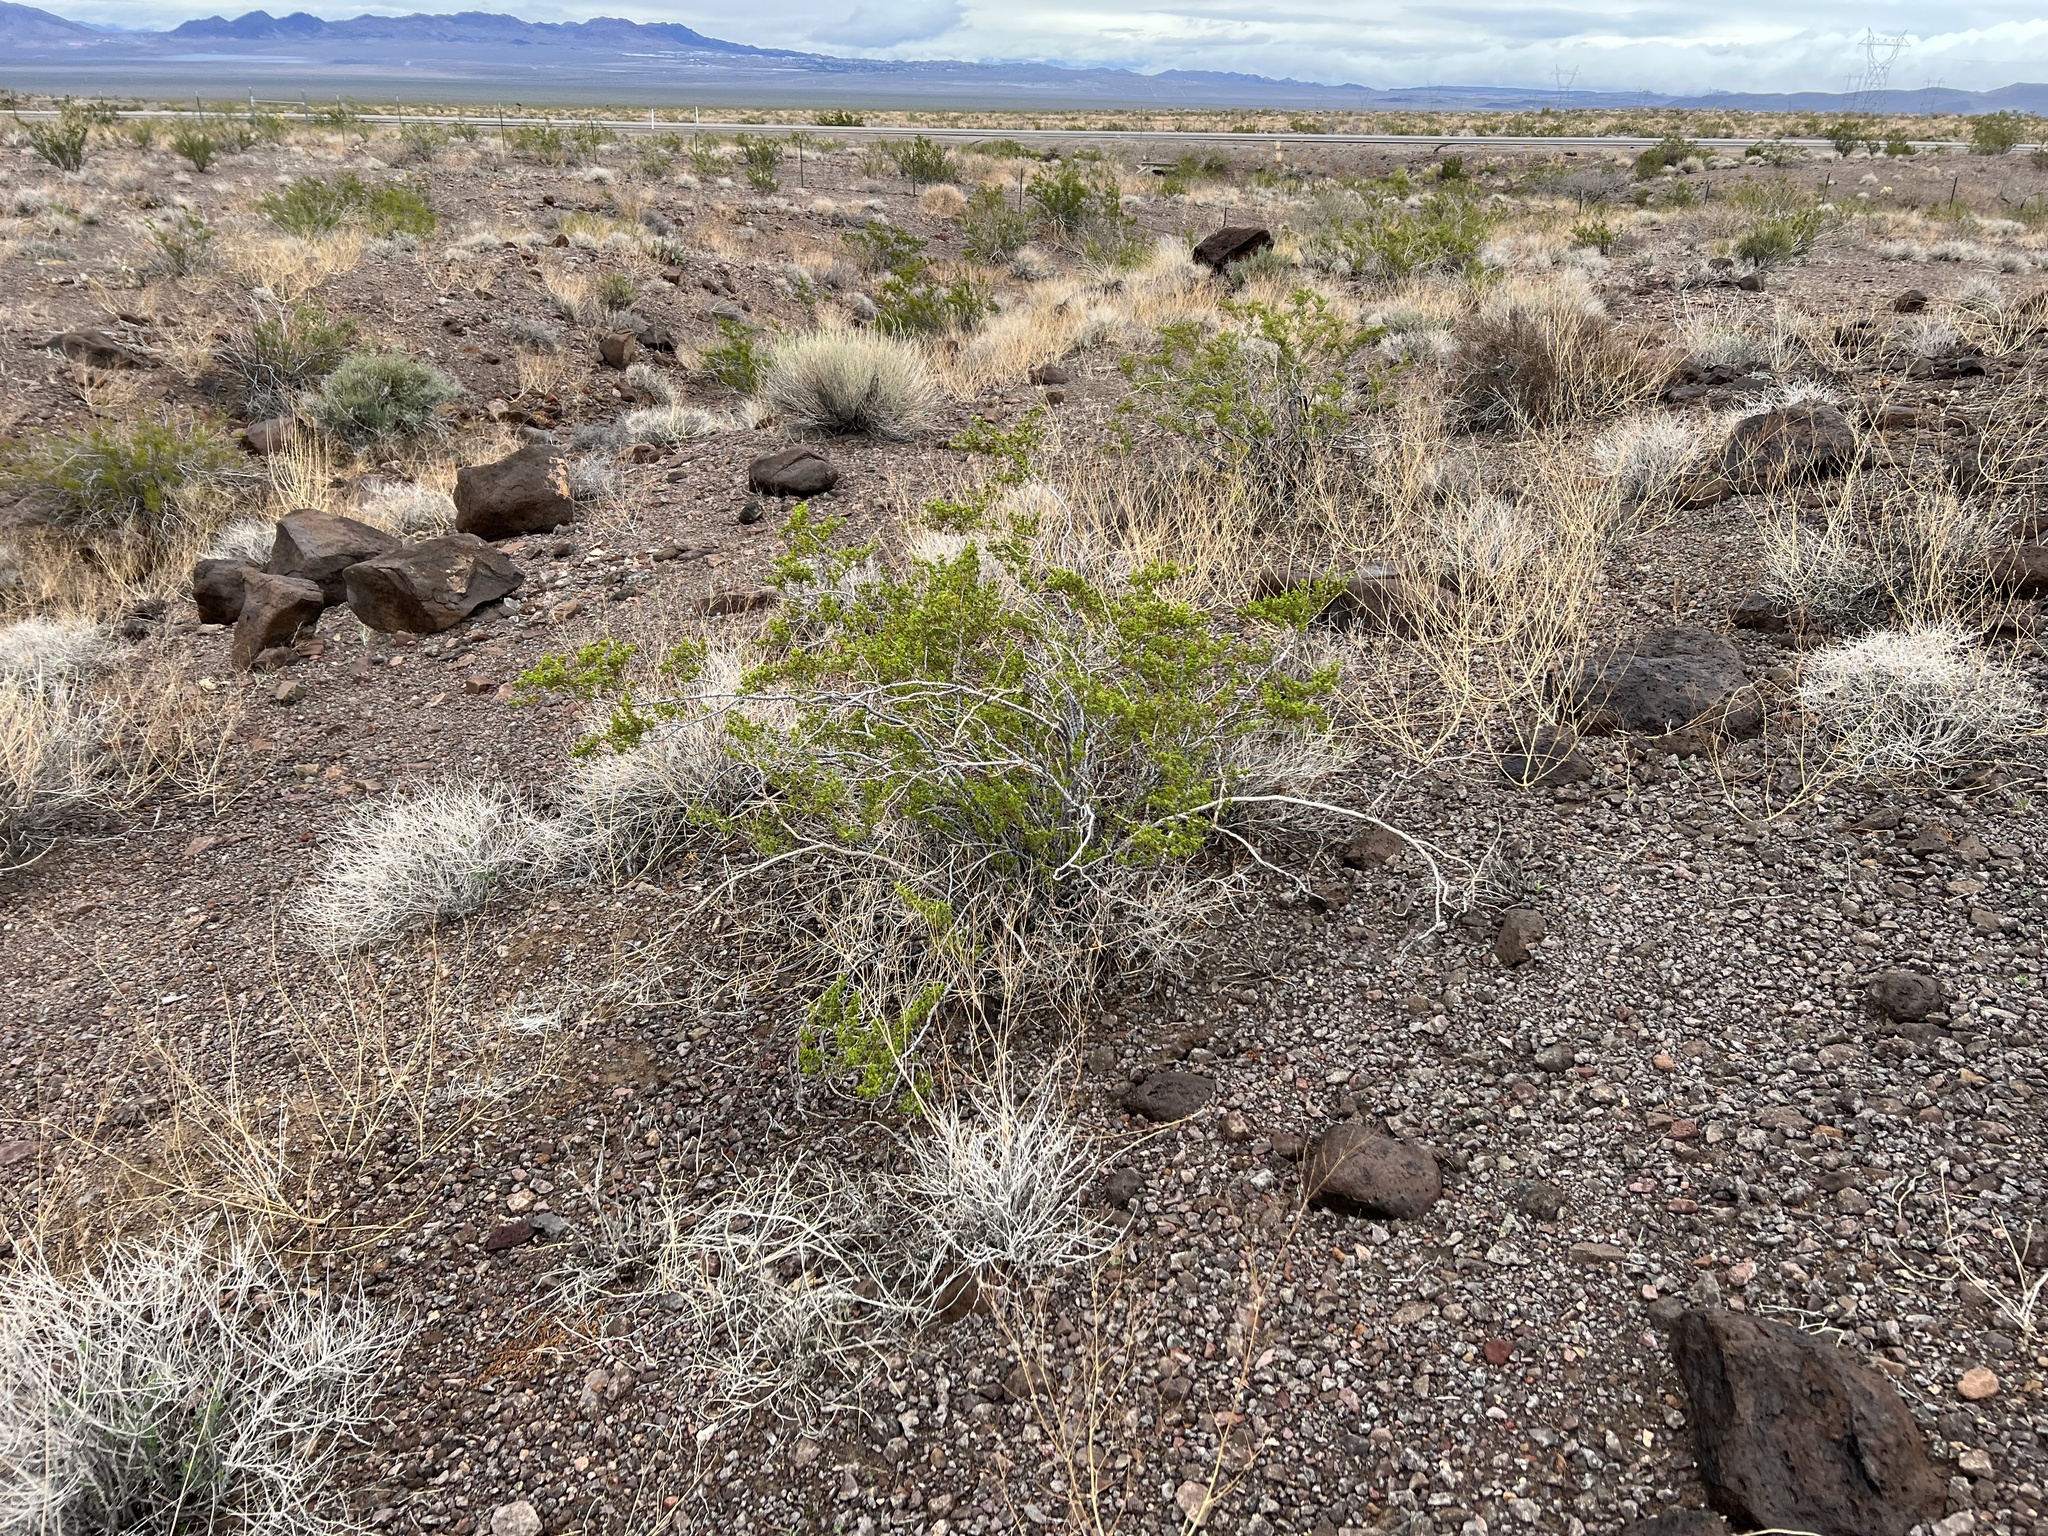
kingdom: Plantae
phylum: Tracheophyta
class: Magnoliopsida
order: Zygophyllales
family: Zygophyllaceae
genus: Larrea
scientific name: Larrea tridentata
